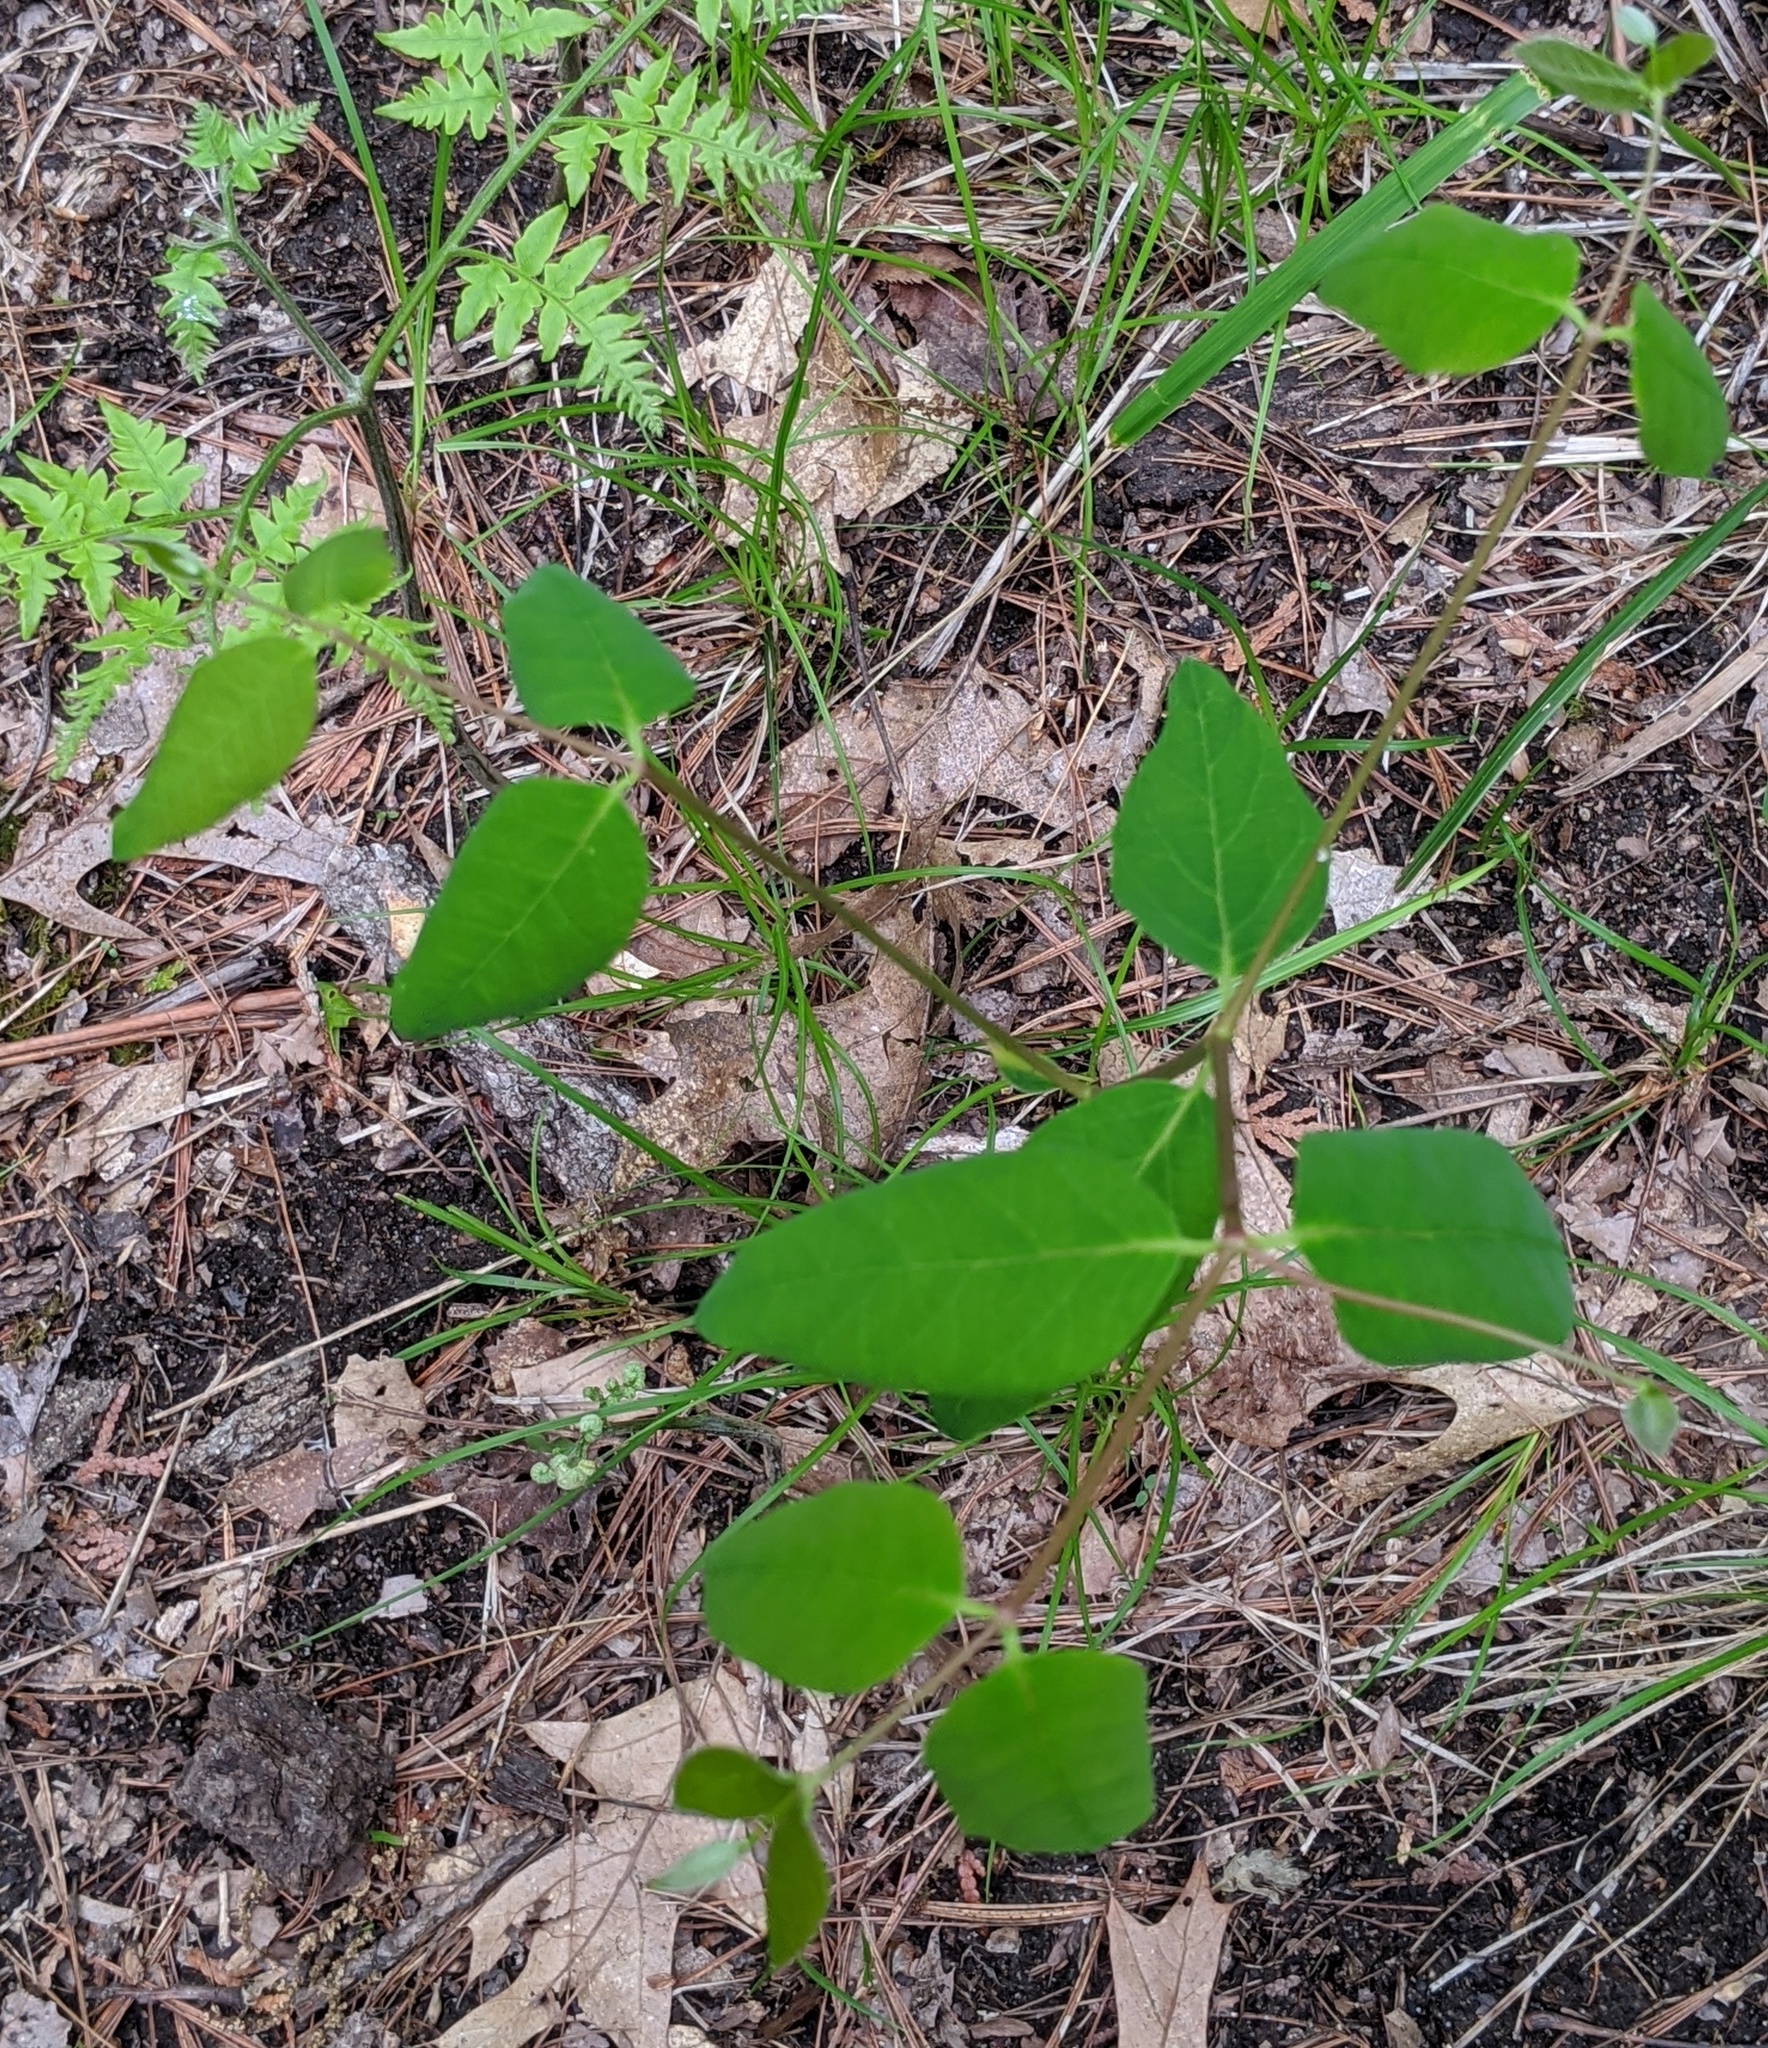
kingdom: Plantae
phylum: Tracheophyta
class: Magnoliopsida
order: Gentianales
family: Apocynaceae
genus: Apocynum
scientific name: Apocynum androsaemifolium
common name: Spreading dogbane
